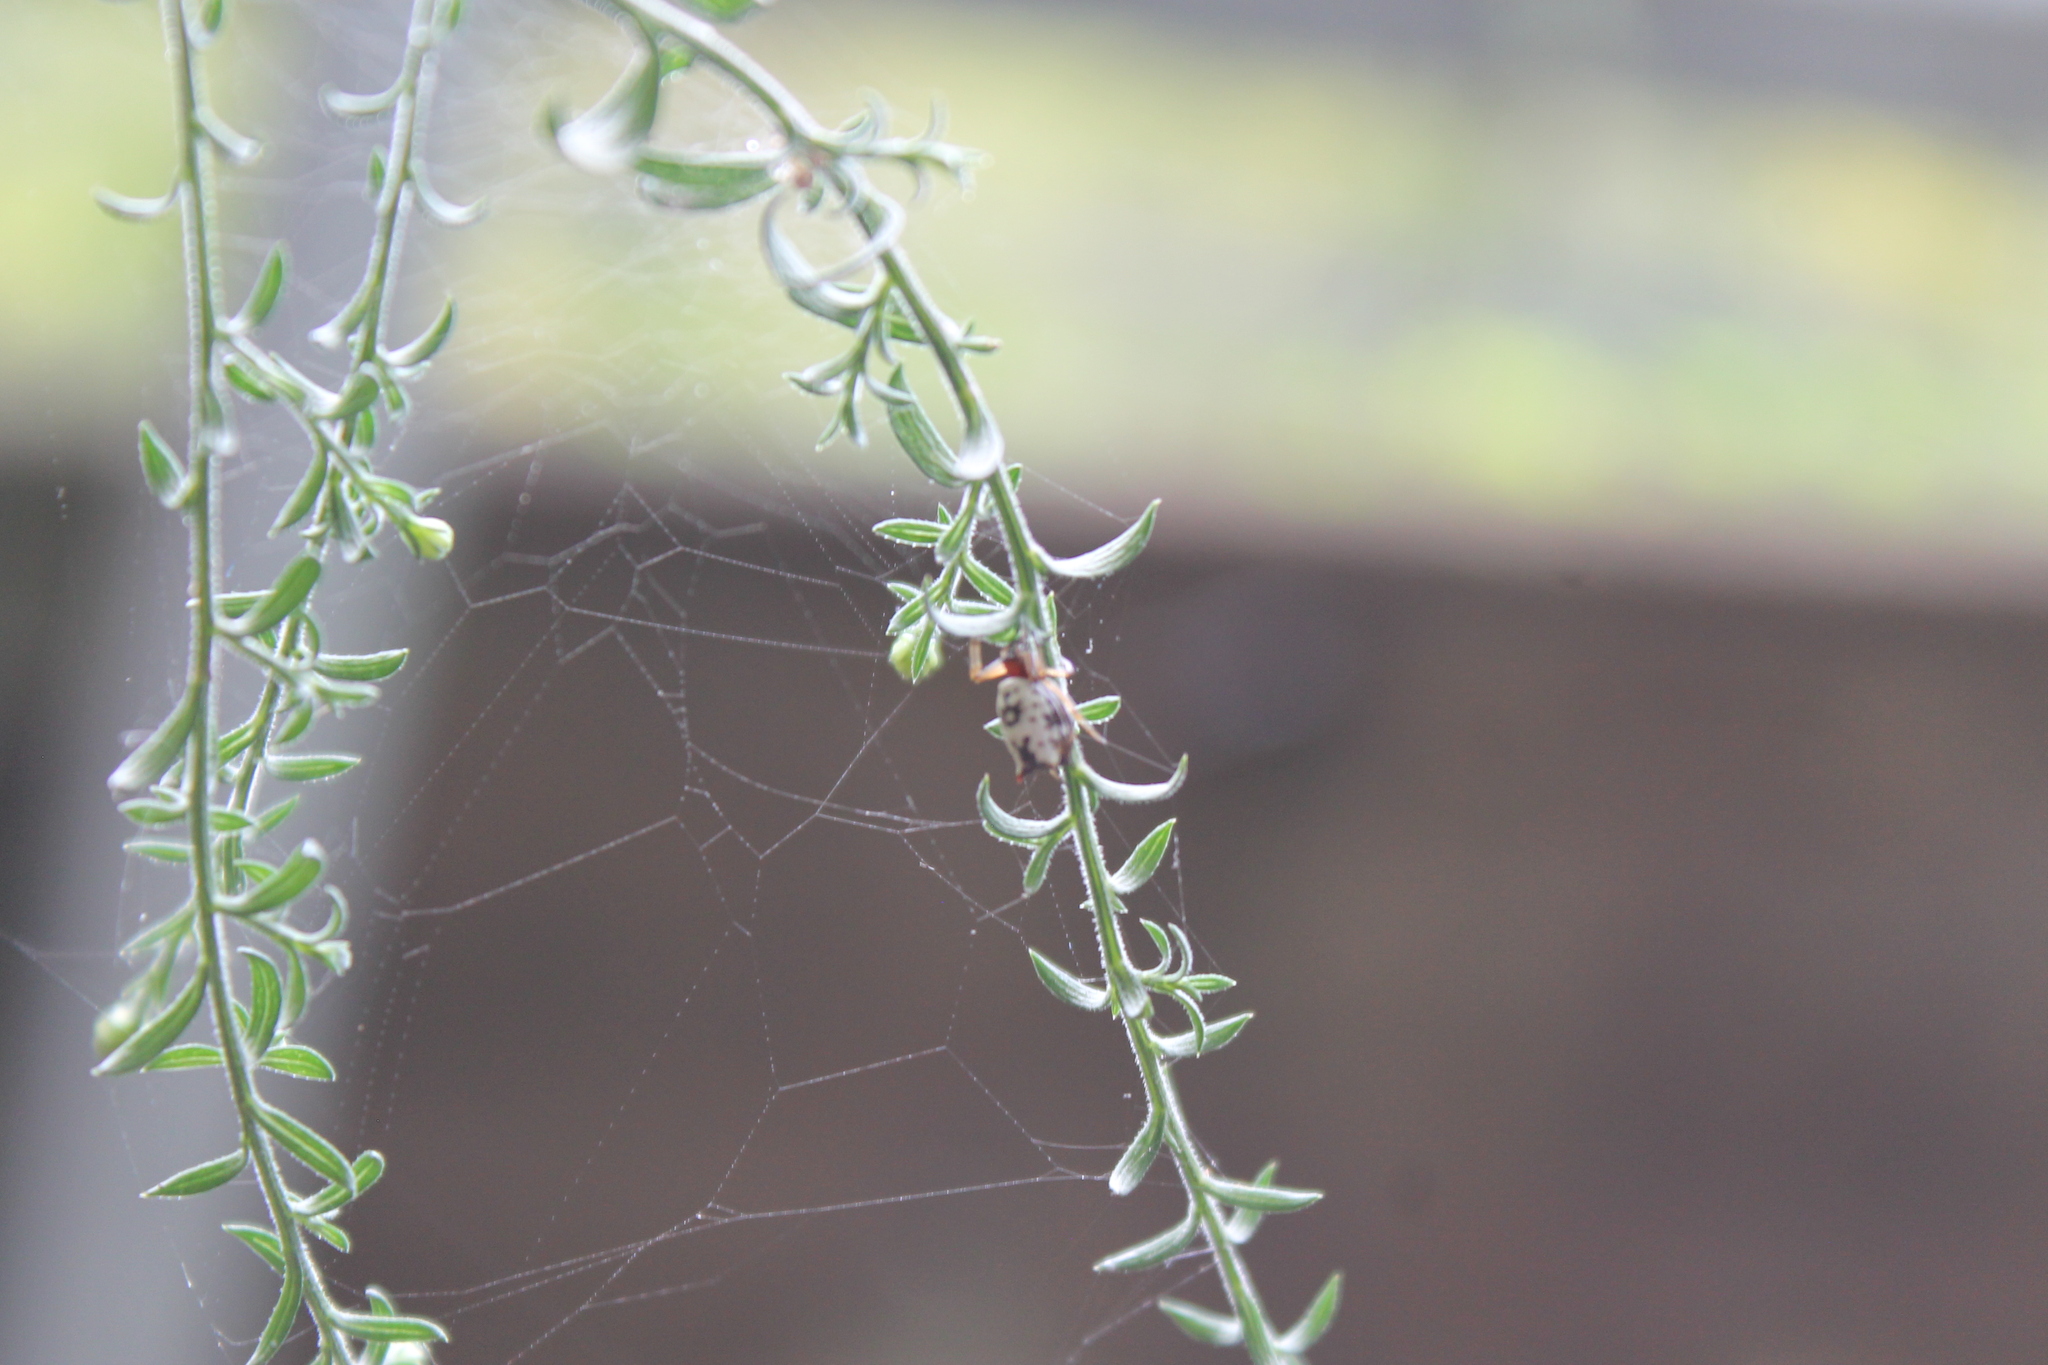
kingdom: Animalia
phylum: Arthropoda
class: Arachnida
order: Araneae
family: Araneidae
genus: Micrathena
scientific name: Micrathena mitrata
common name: Orb weavers
